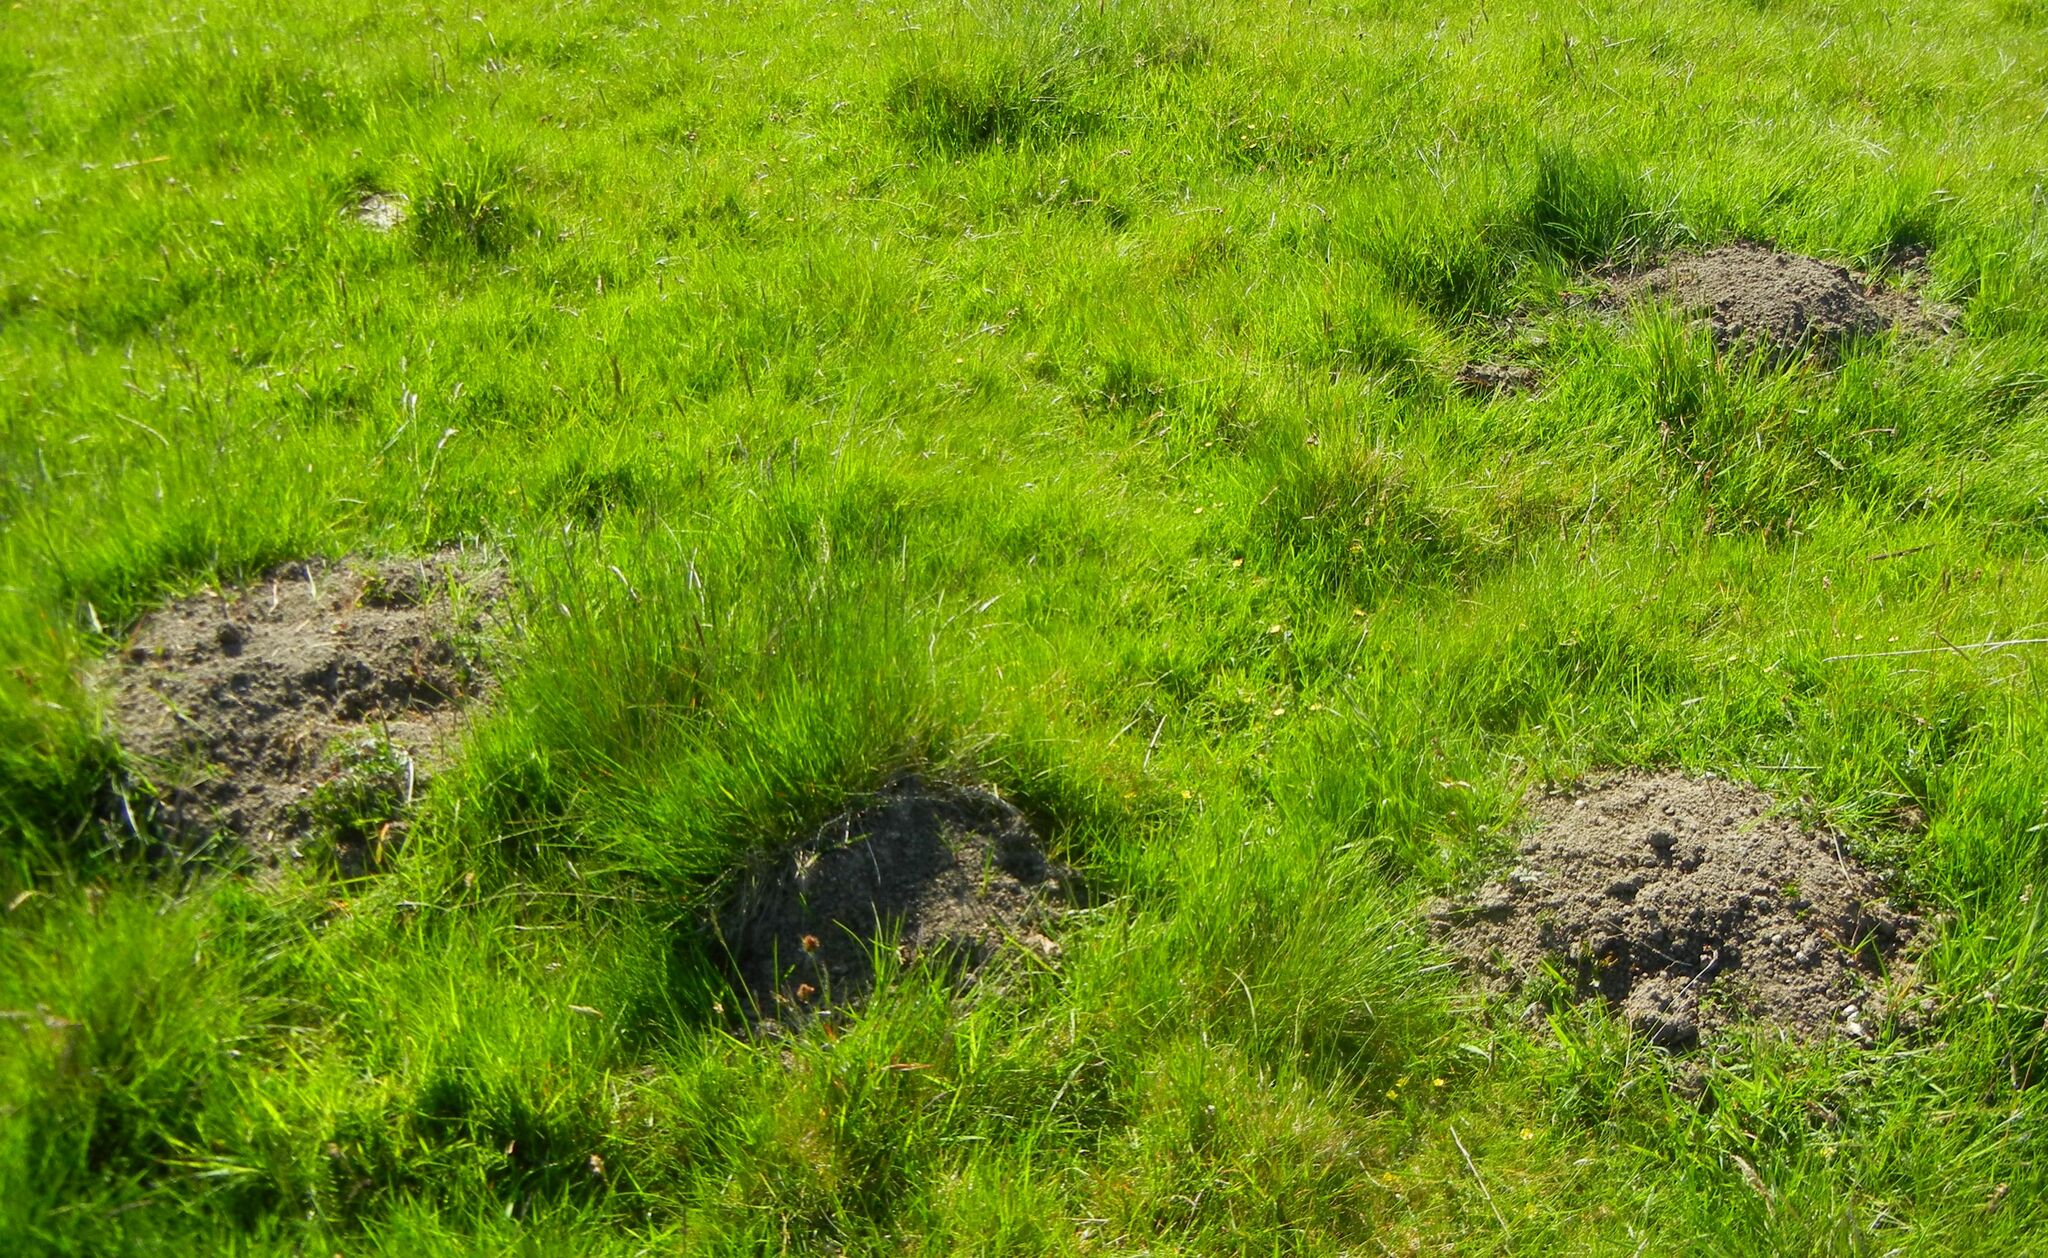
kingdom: Animalia
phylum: Chordata
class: Mammalia
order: Soricomorpha
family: Talpidae
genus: Talpa
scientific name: Talpa europaea
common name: European mole
